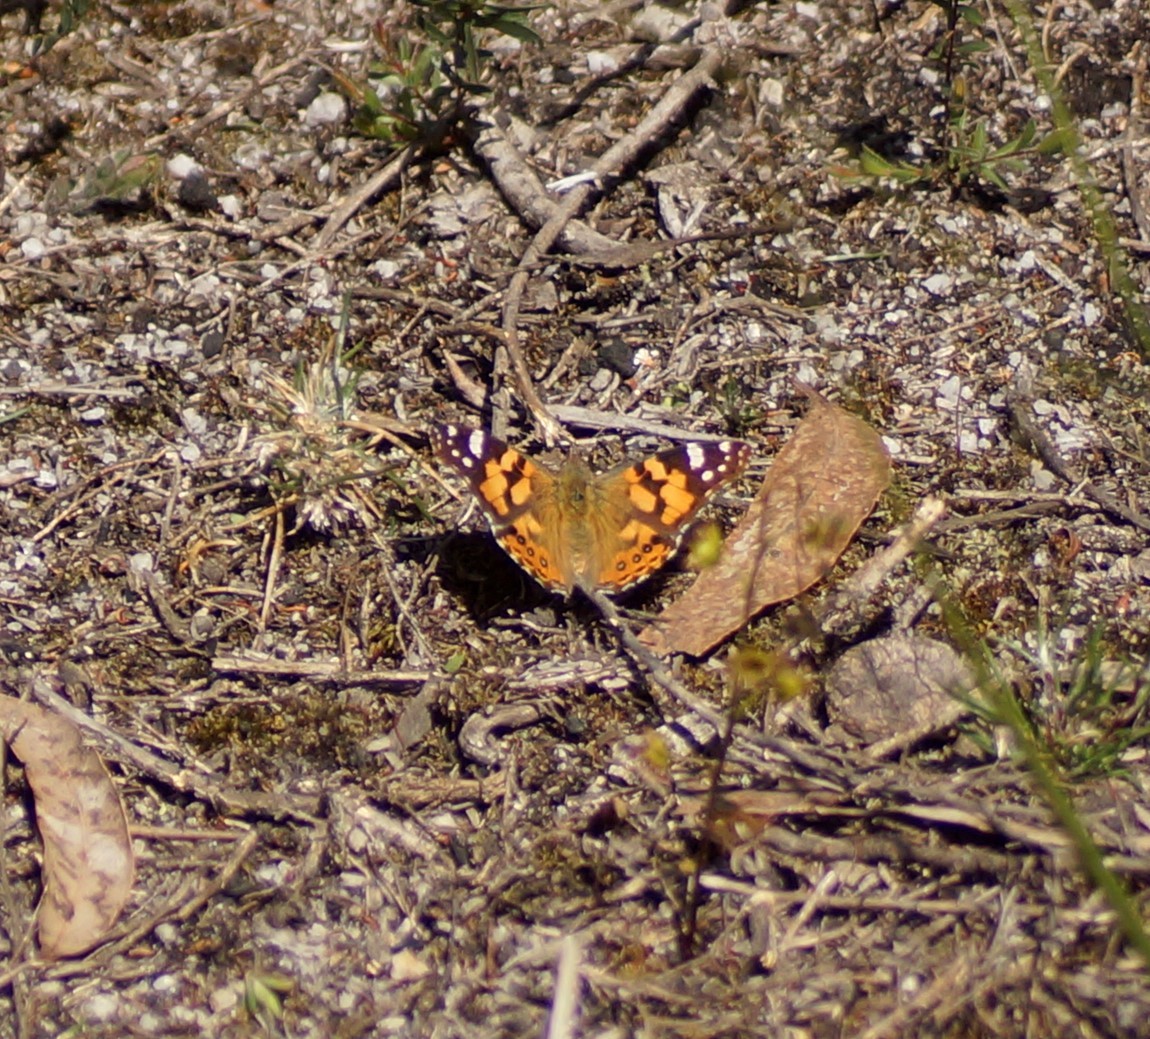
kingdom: Animalia
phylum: Arthropoda
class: Insecta
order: Lepidoptera
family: Nymphalidae
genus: Vanessa
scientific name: Vanessa kershawi
